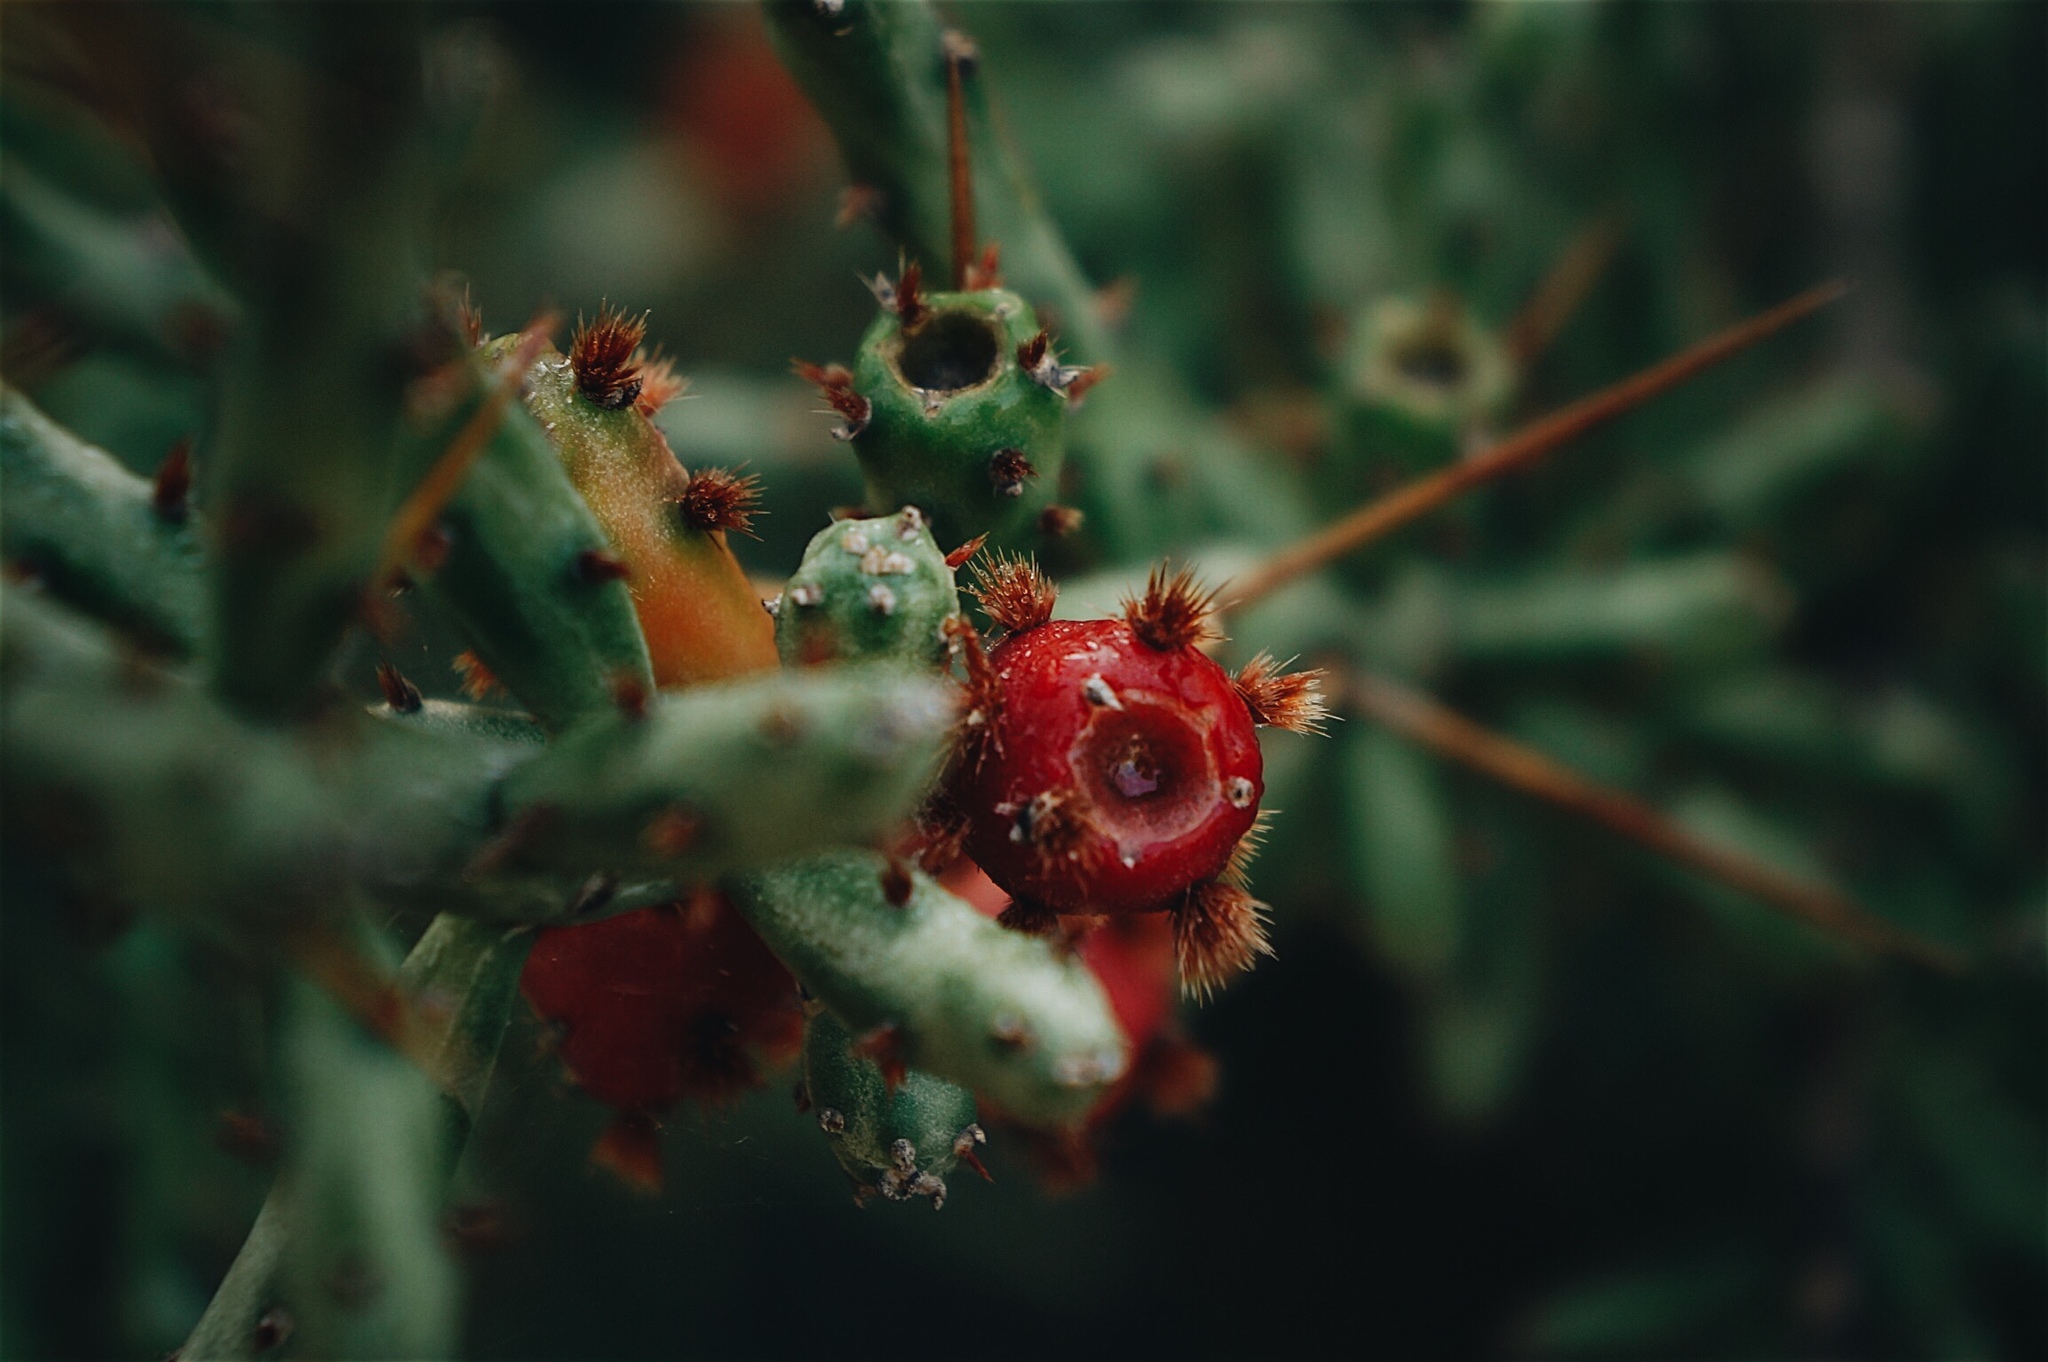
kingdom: Plantae
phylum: Tracheophyta
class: Magnoliopsida
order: Caryophyllales
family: Cactaceae
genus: Cylindropuntia
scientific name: Cylindropuntia leptocaulis
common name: Christmas cactus
